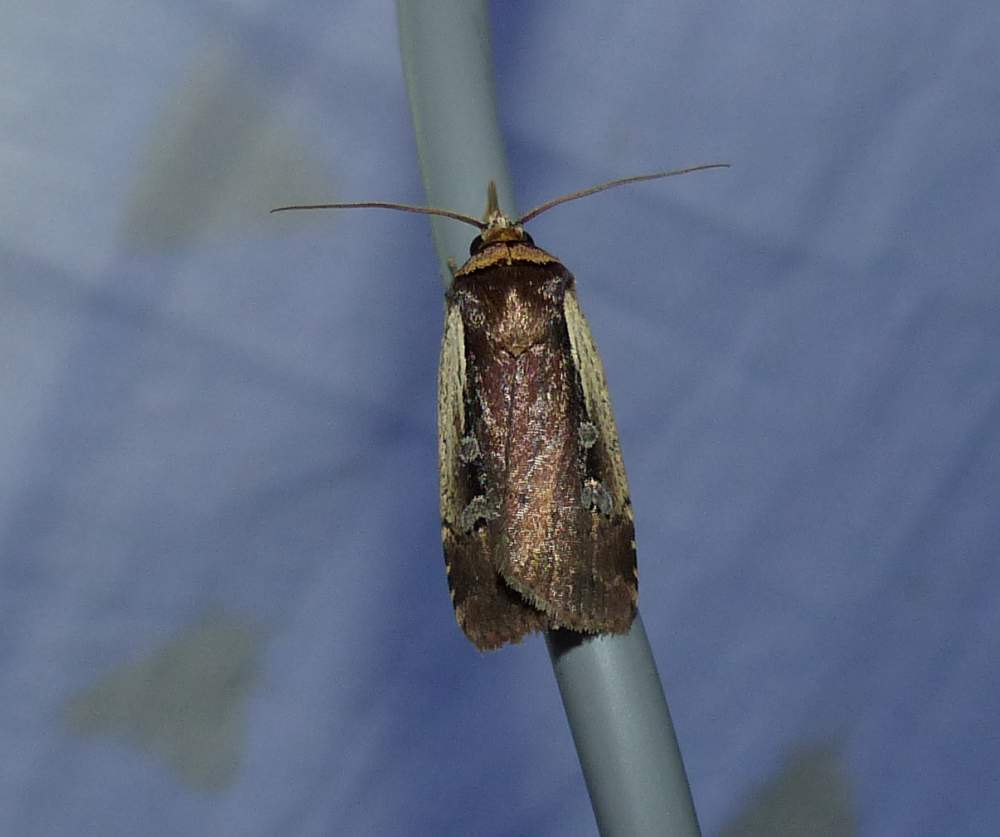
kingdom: Animalia
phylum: Arthropoda
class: Insecta
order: Lepidoptera
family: Noctuidae
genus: Ochropleura
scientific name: Ochropleura implecta
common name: Flame-shouldered dart
